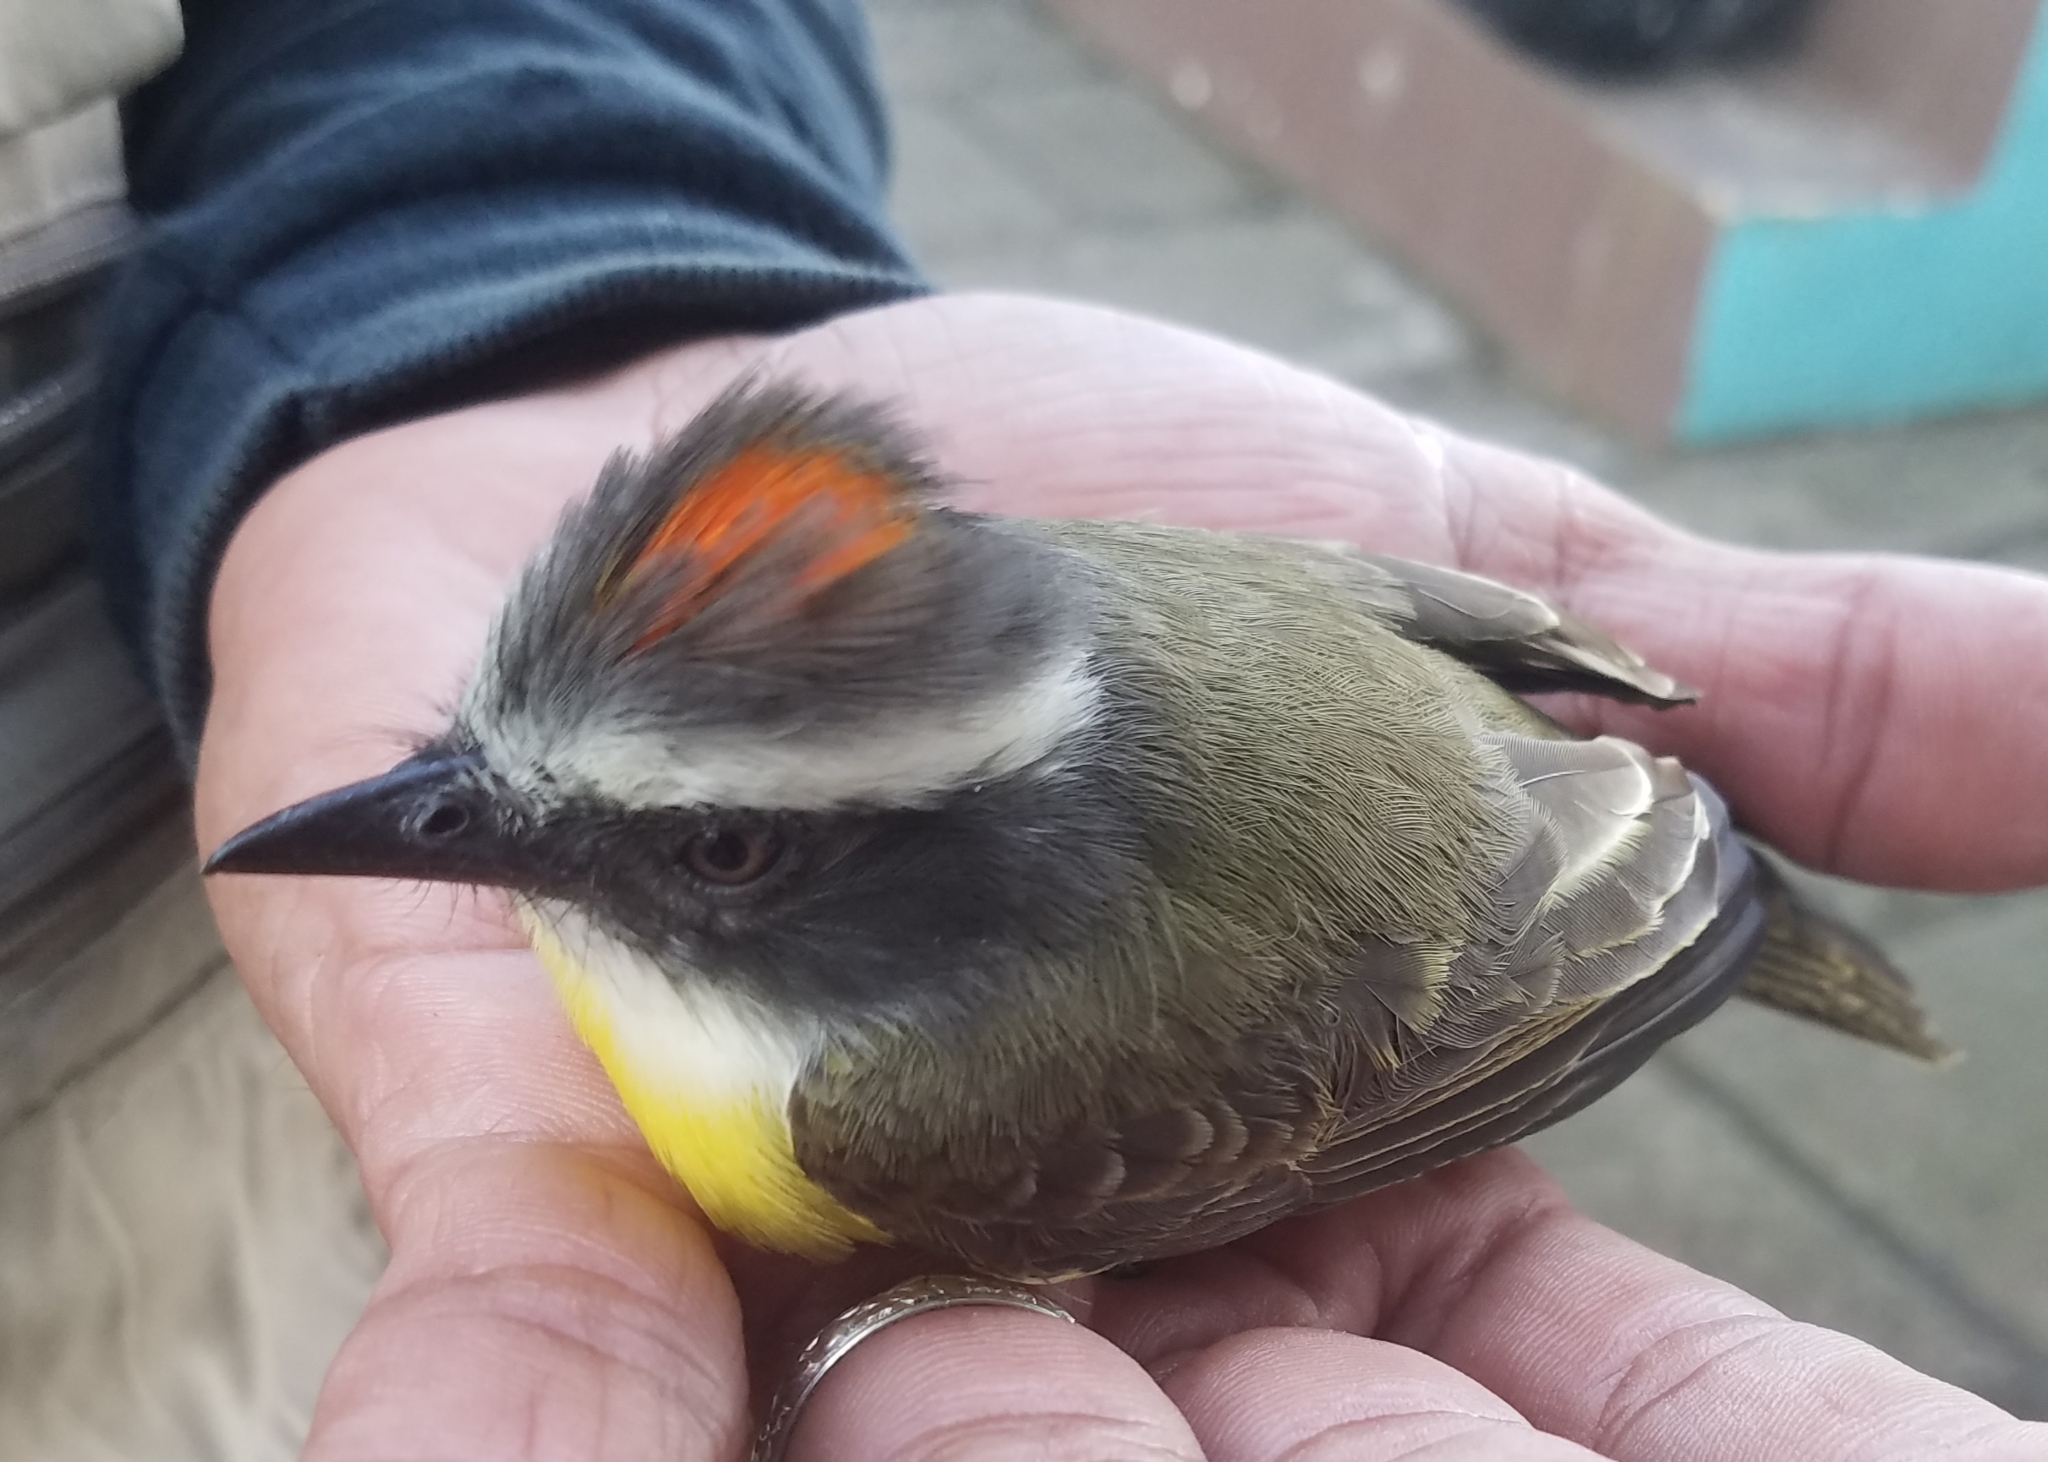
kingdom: Animalia
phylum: Chordata
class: Aves
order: Passeriformes
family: Tyrannidae
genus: Myiozetetes
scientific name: Myiozetetes similis
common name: Social flycatcher
